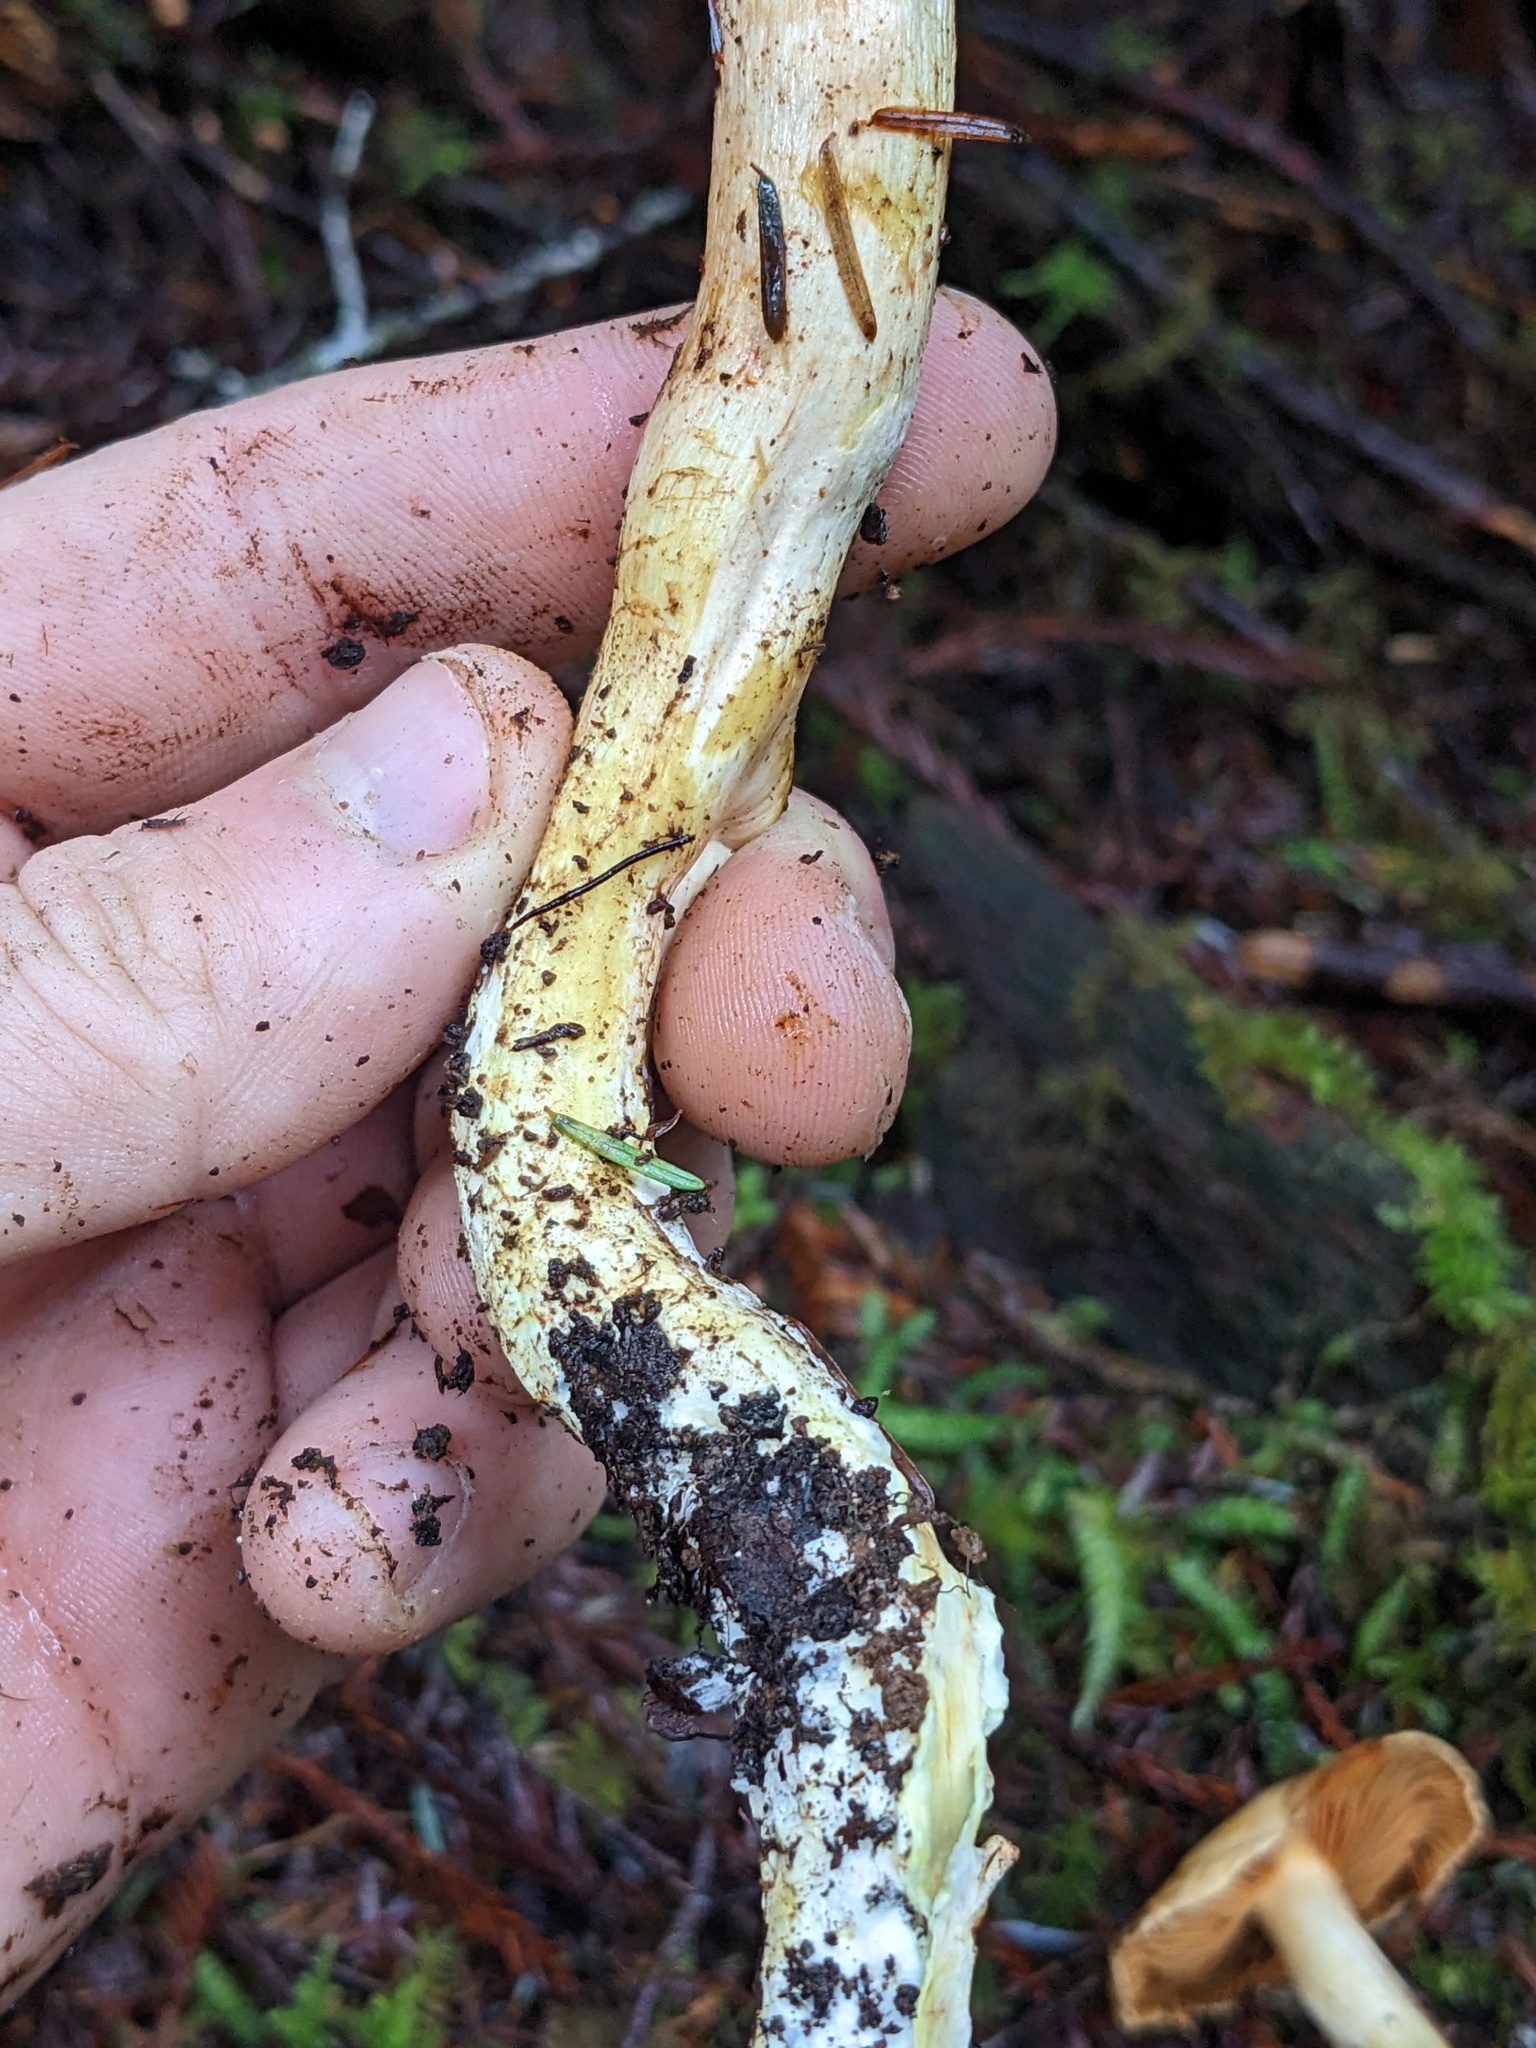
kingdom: Fungi
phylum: Basidiomycota
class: Agaricomycetes
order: Agaricales
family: Cortinariaceae
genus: Cystinarius
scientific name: Cystinarius rubiginosus
